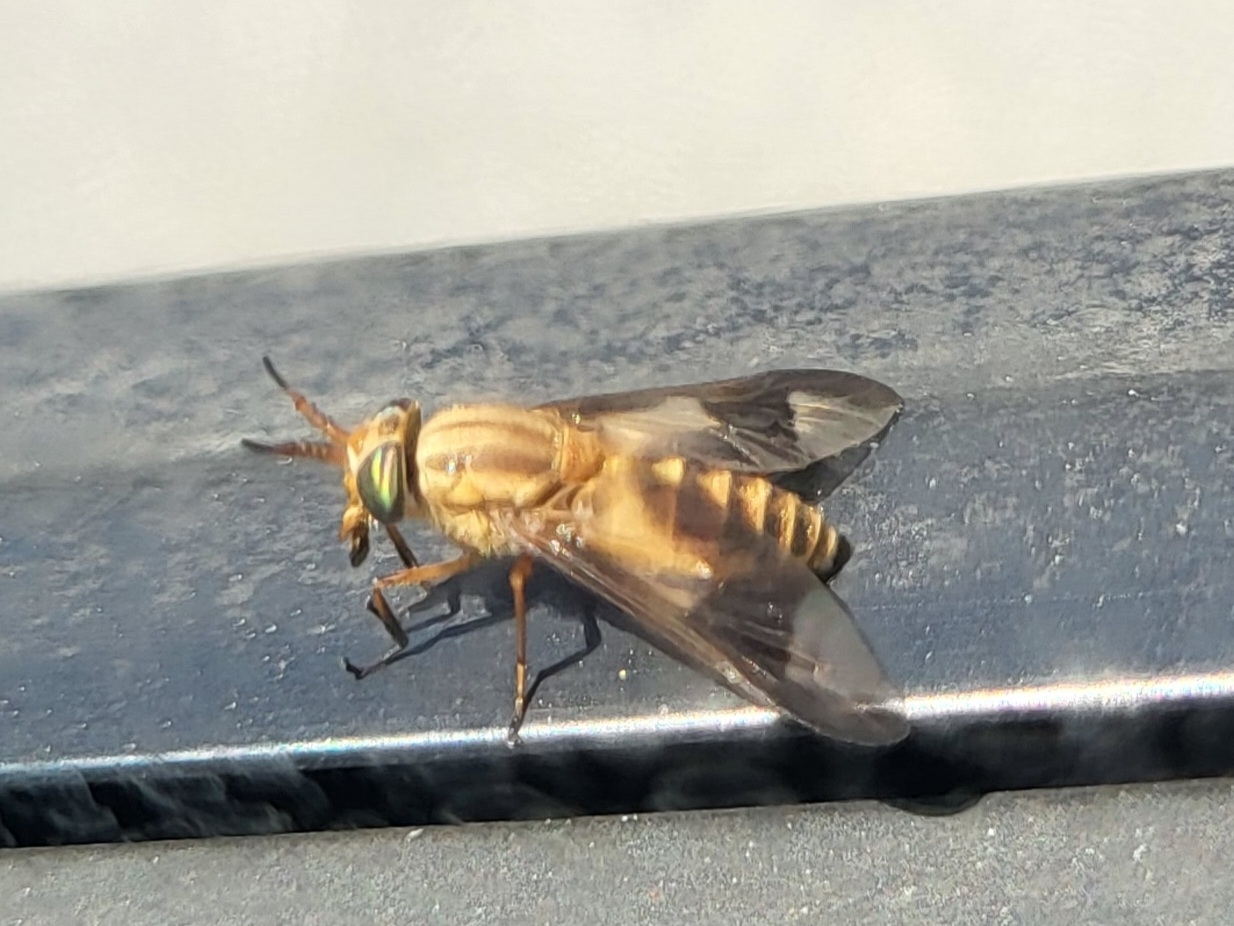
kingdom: Animalia
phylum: Arthropoda
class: Insecta
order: Diptera
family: Tabanidae
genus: Chrysops
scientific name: Chrysops brunneus
